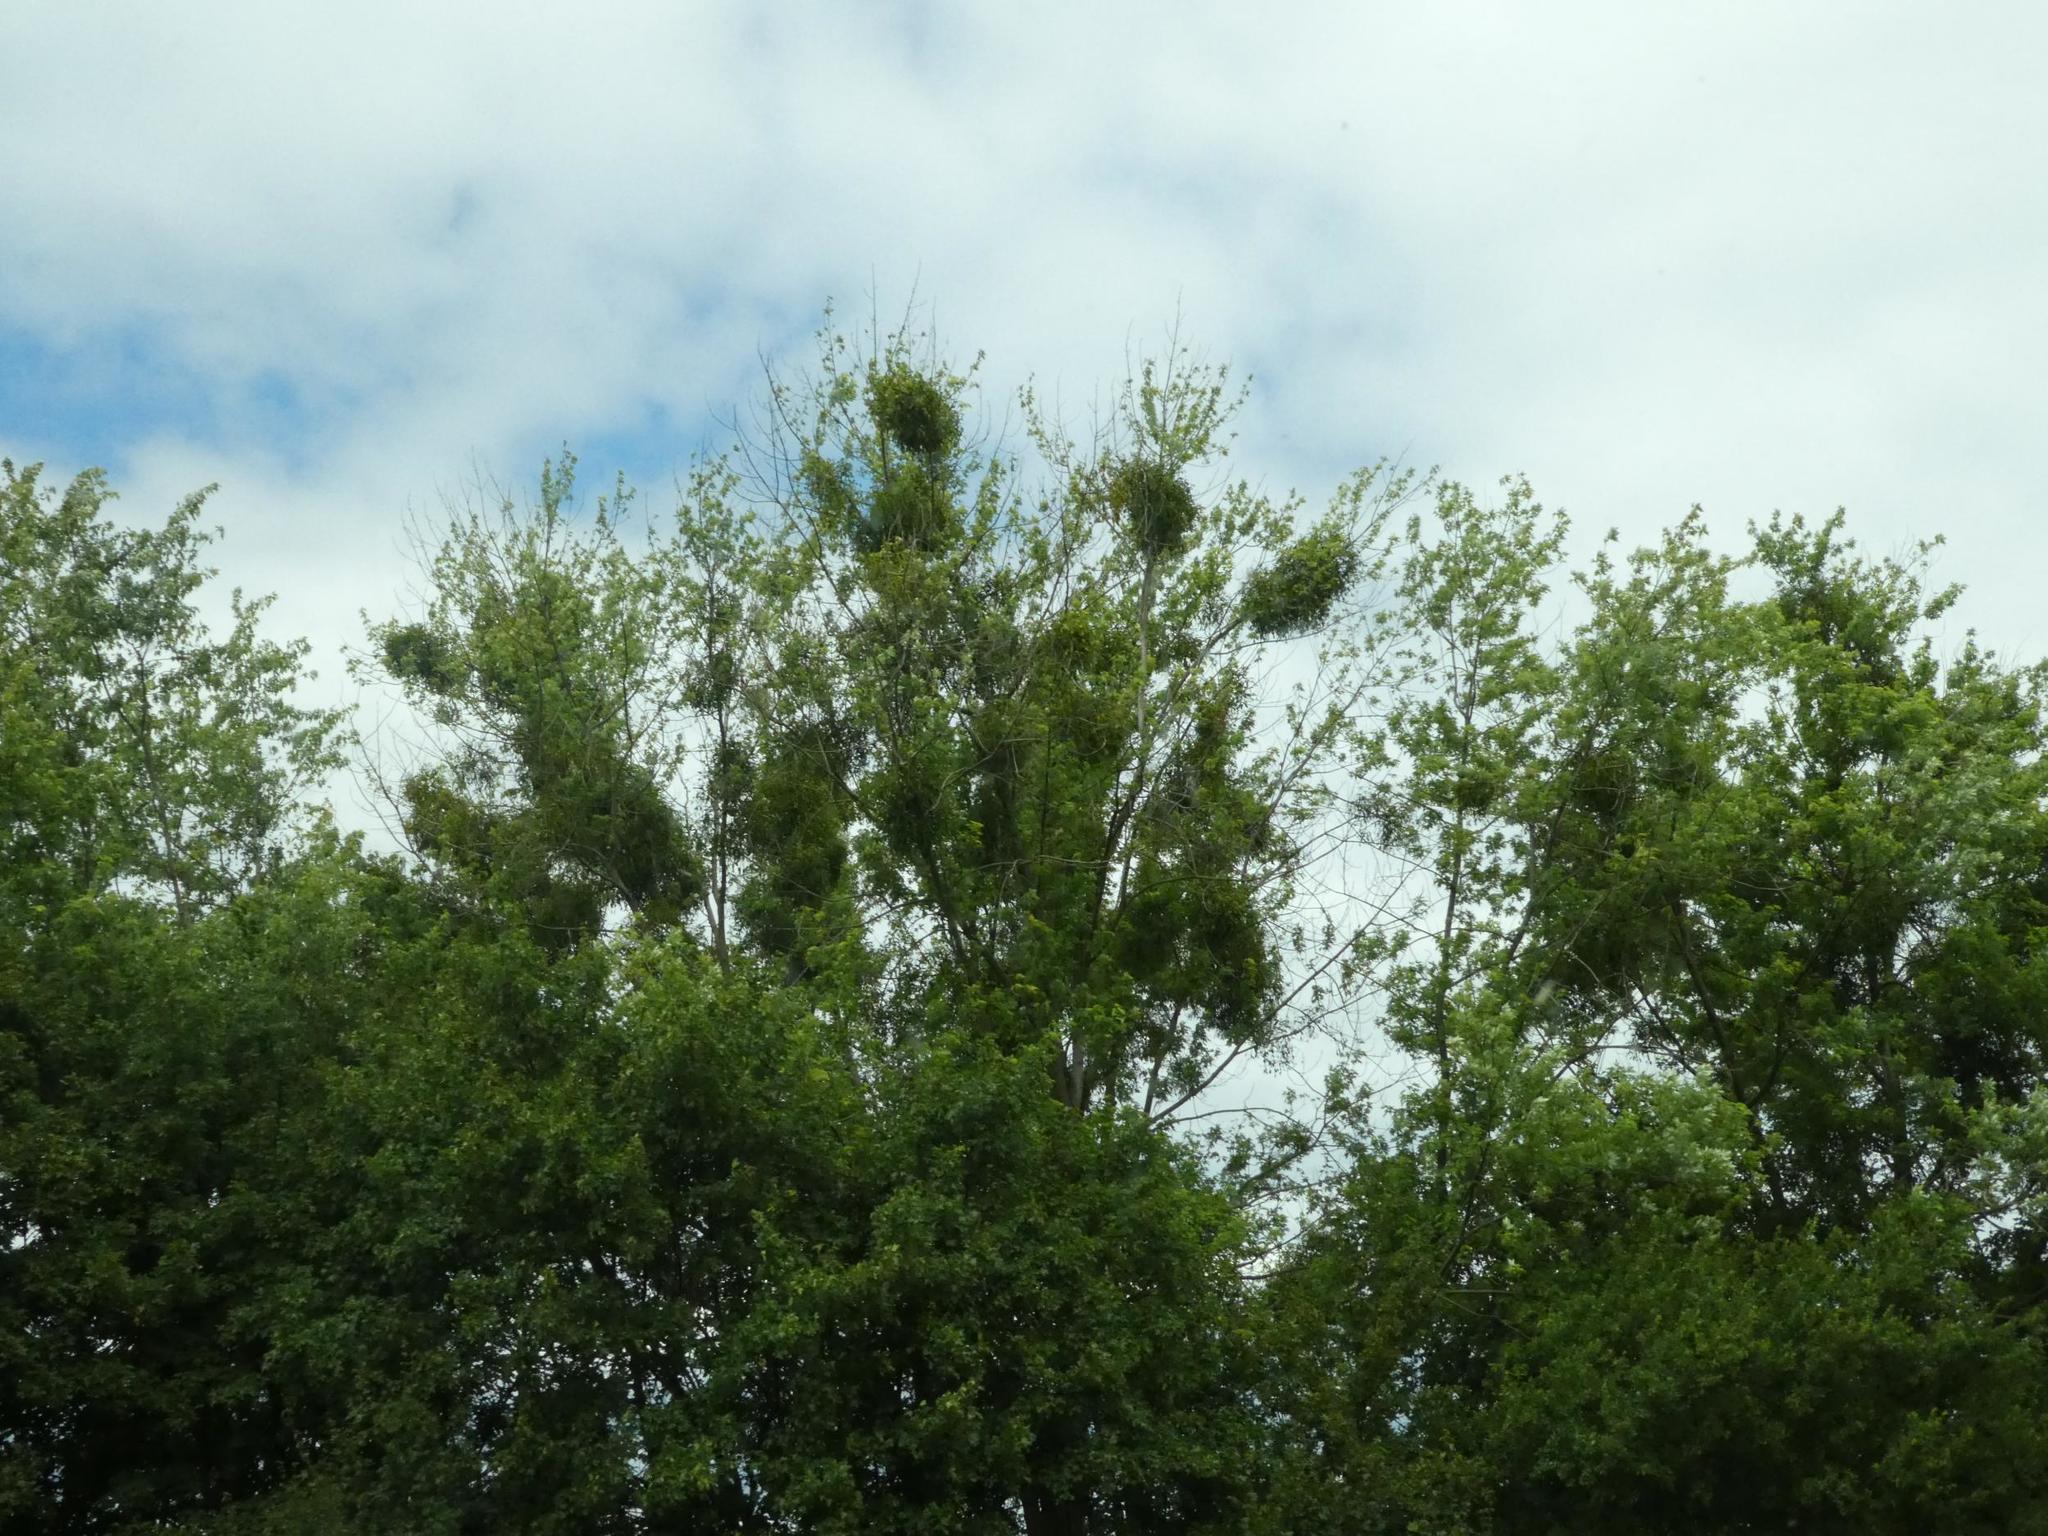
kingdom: Plantae
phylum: Tracheophyta
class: Magnoliopsida
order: Santalales
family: Viscaceae
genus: Viscum
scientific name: Viscum album
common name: Mistletoe
